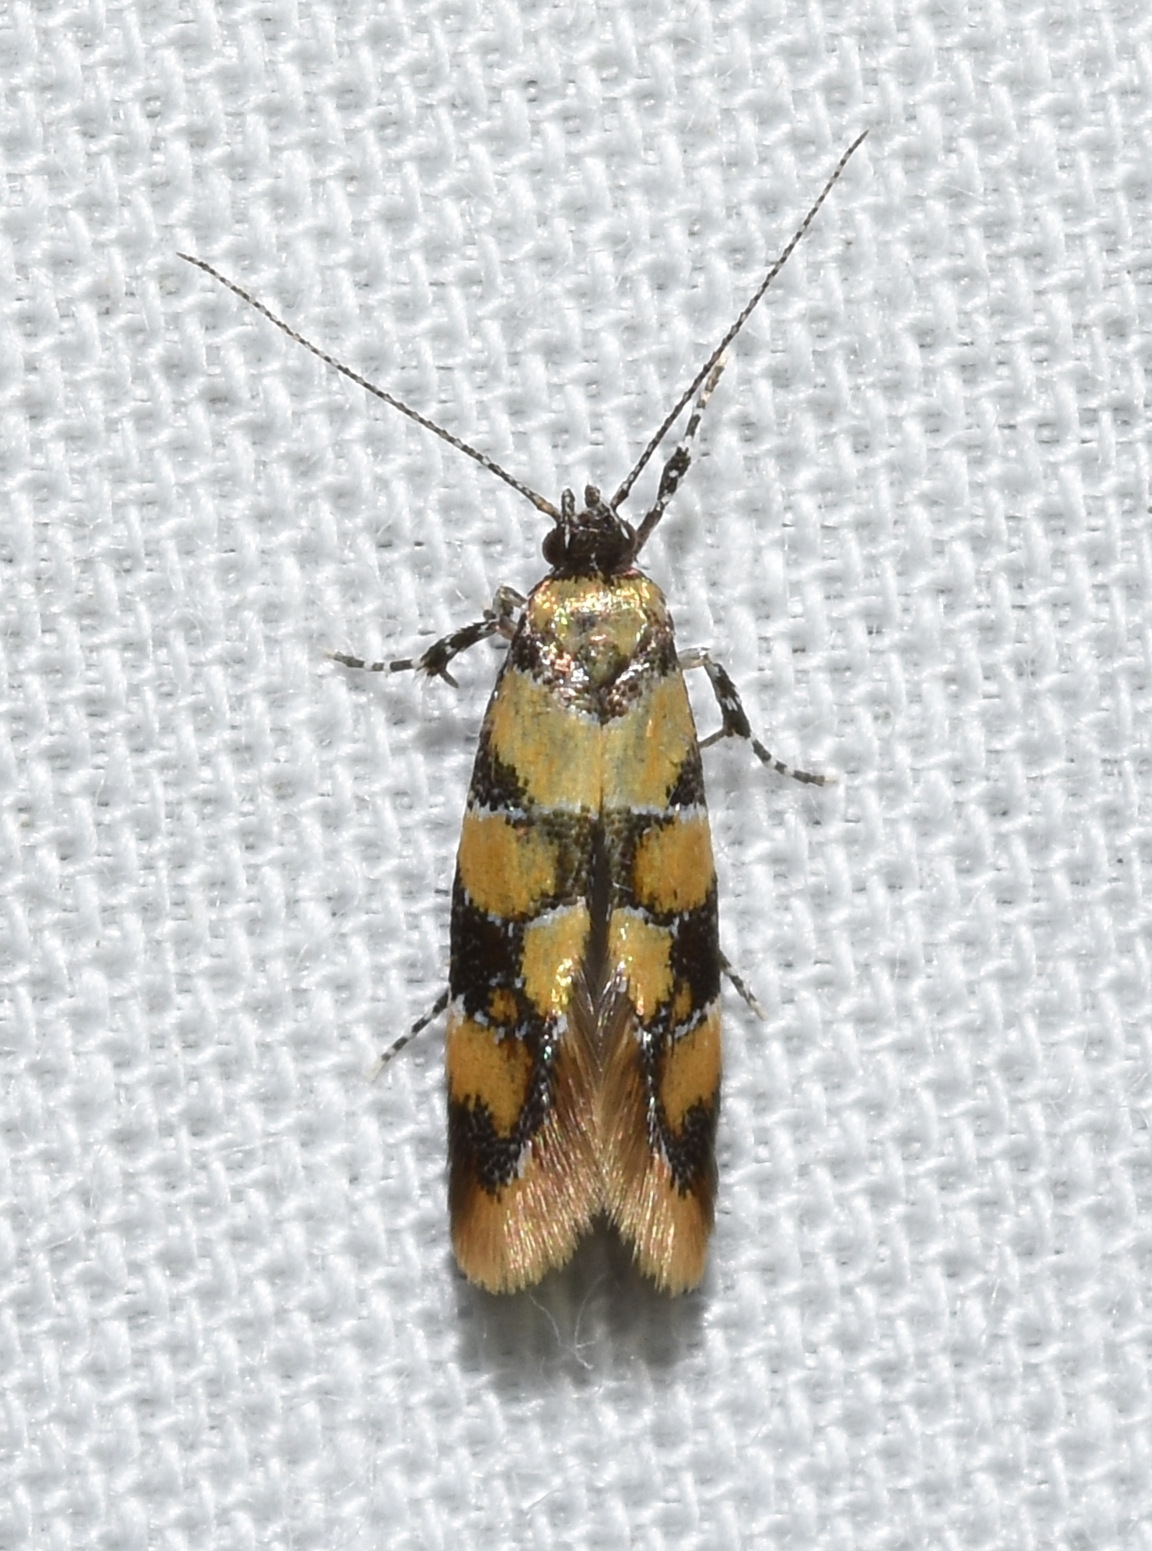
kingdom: Animalia
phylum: Arthropoda
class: Insecta
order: Lepidoptera
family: Oecophoridae
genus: Decantha
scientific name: Decantha borkhausenii
